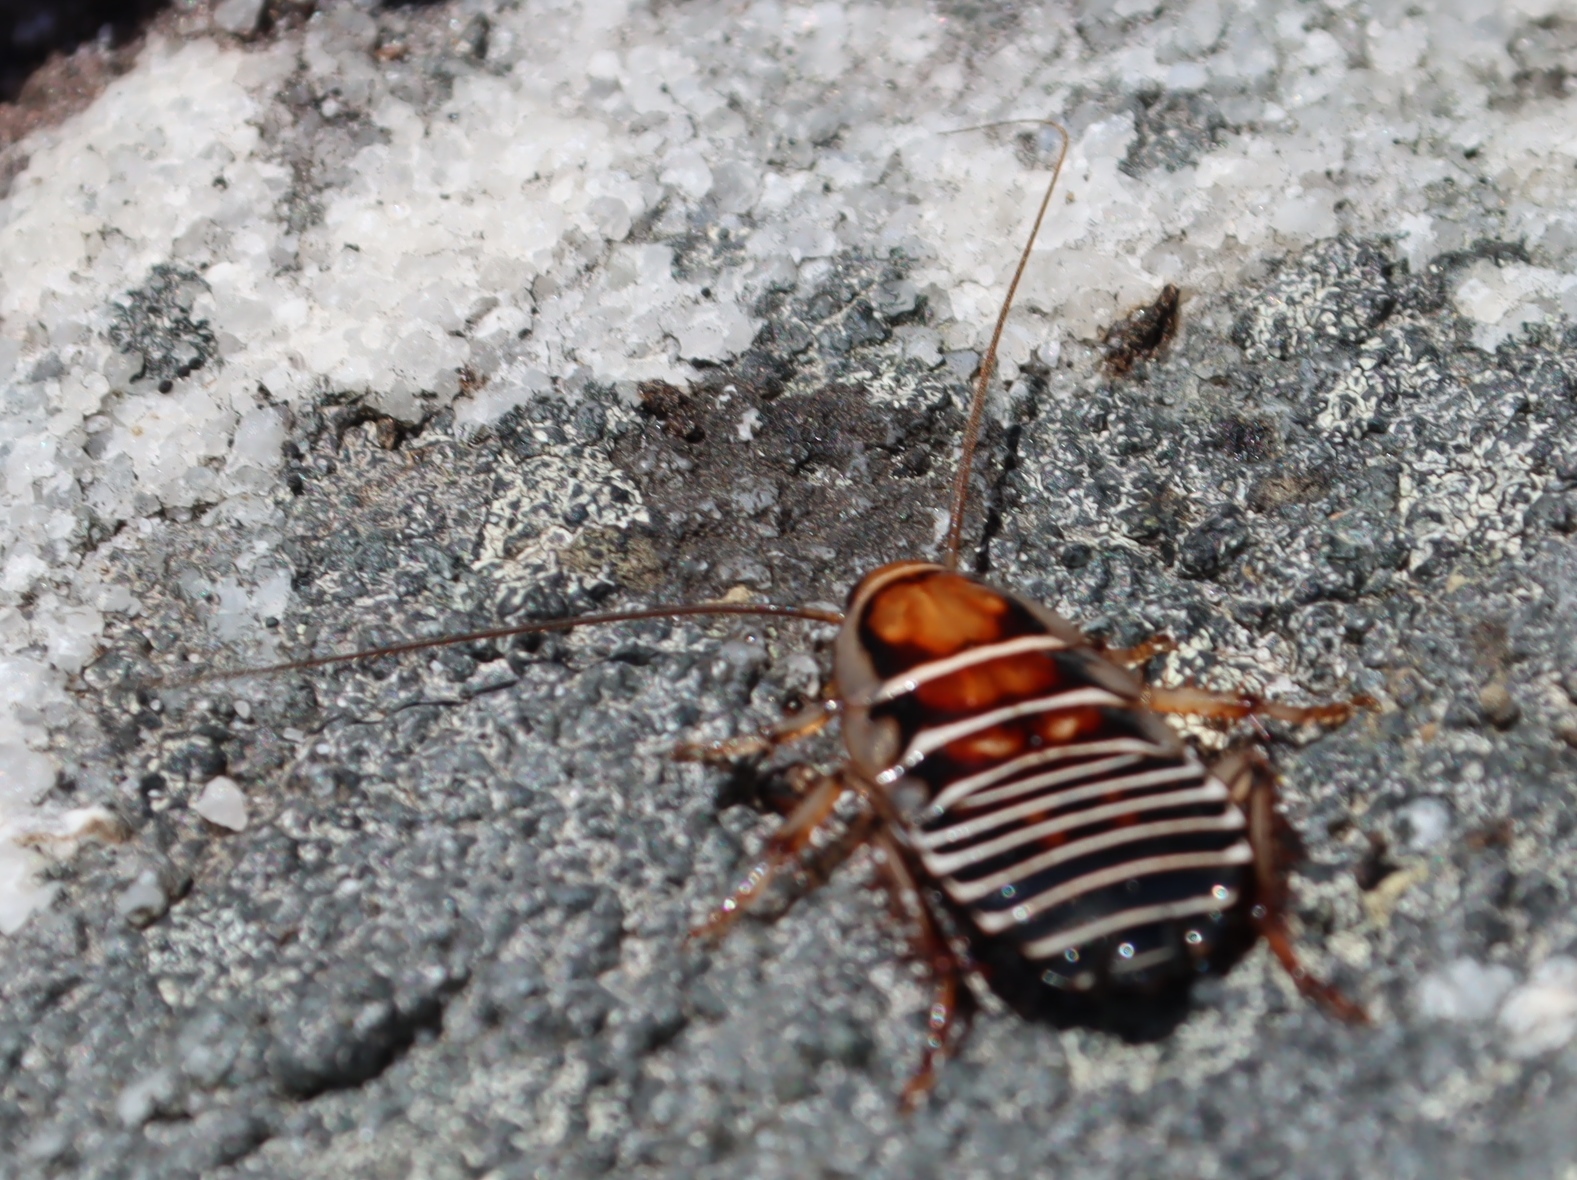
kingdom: Animalia
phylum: Arthropoda
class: Insecta
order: Blattodea
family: Ectobiidae
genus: Temnopteryx
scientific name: Temnopteryx phalerata
